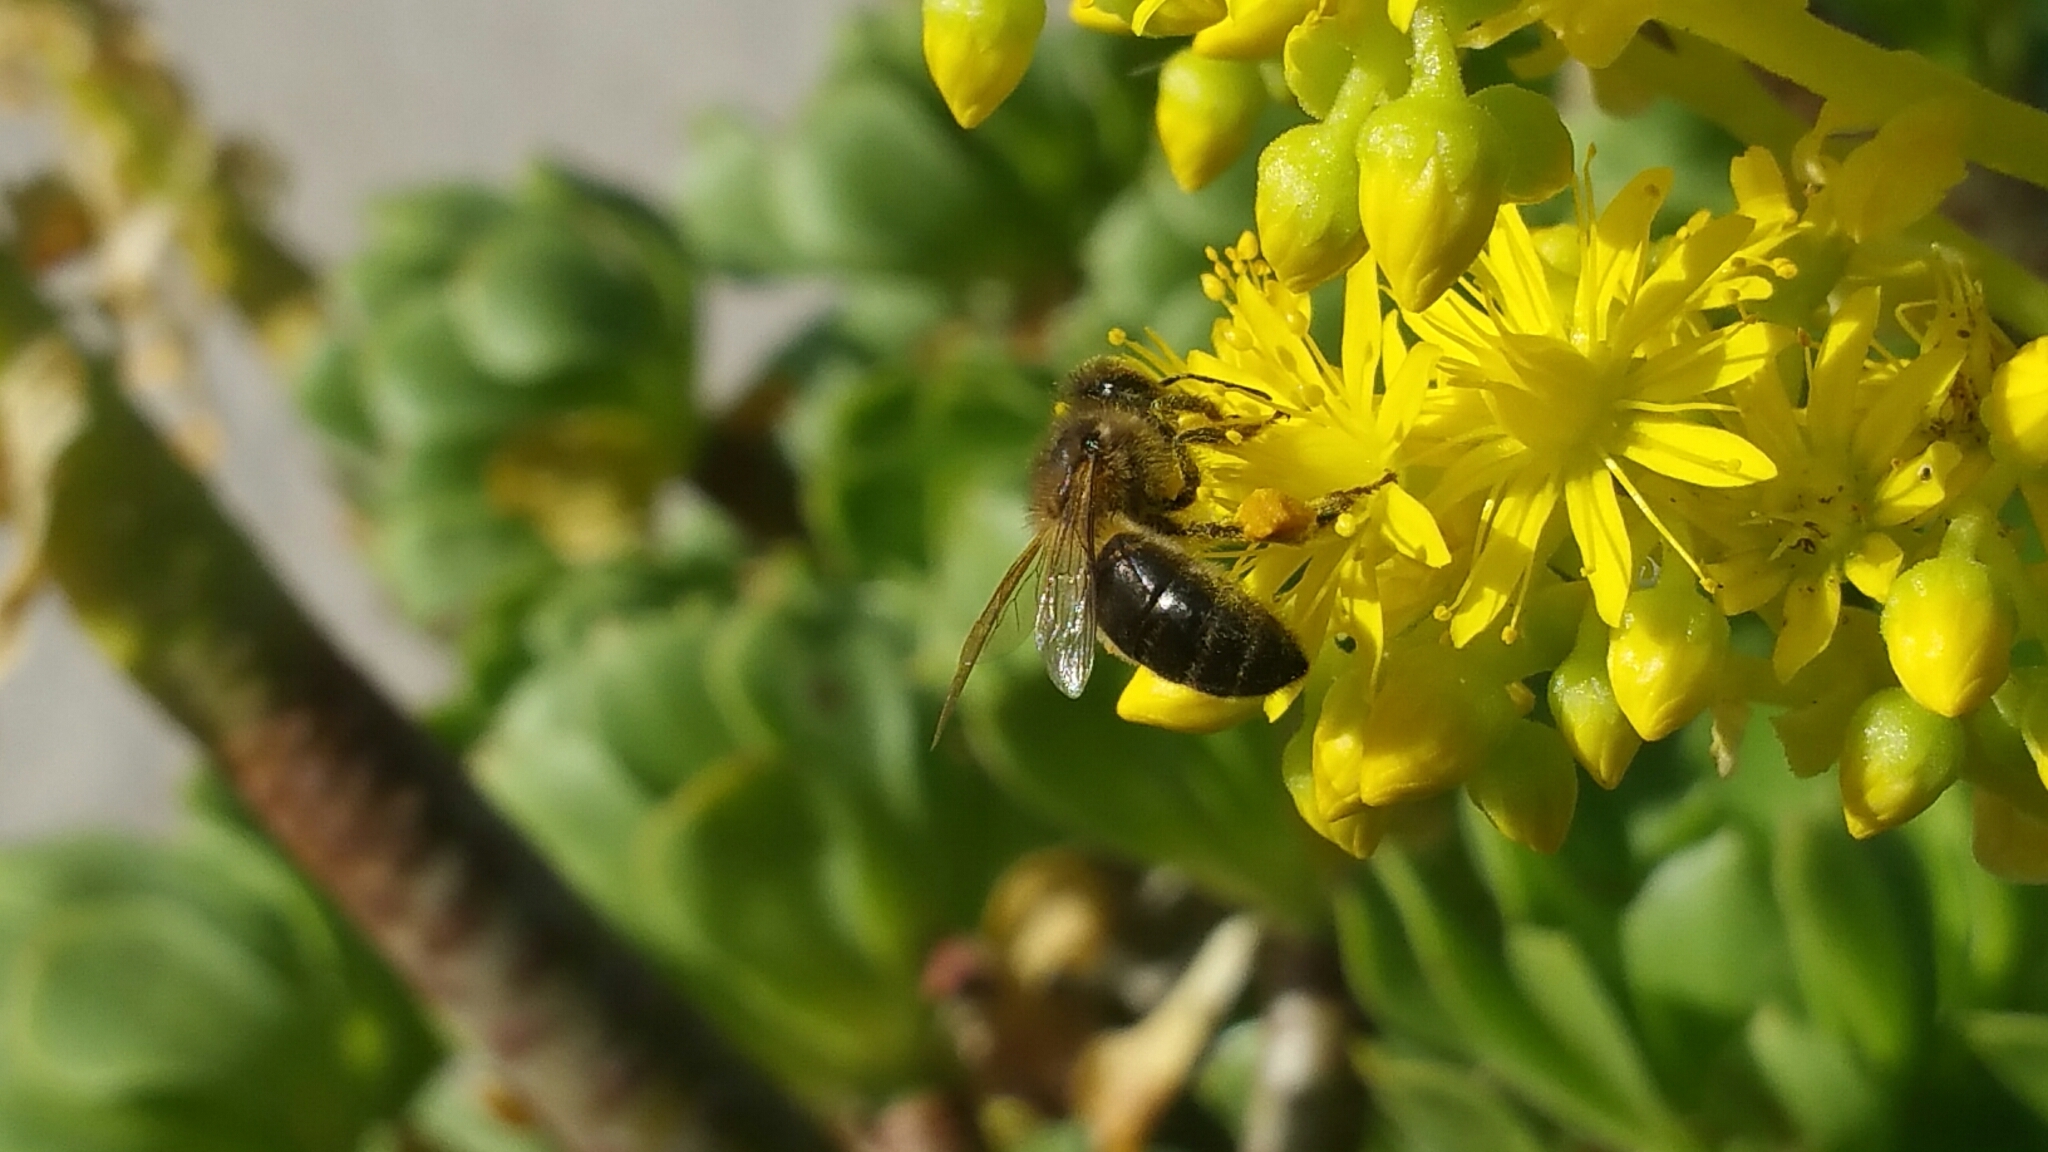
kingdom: Animalia
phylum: Arthropoda
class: Insecta
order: Hymenoptera
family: Apidae
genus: Apis
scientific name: Apis mellifera
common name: Honey bee
